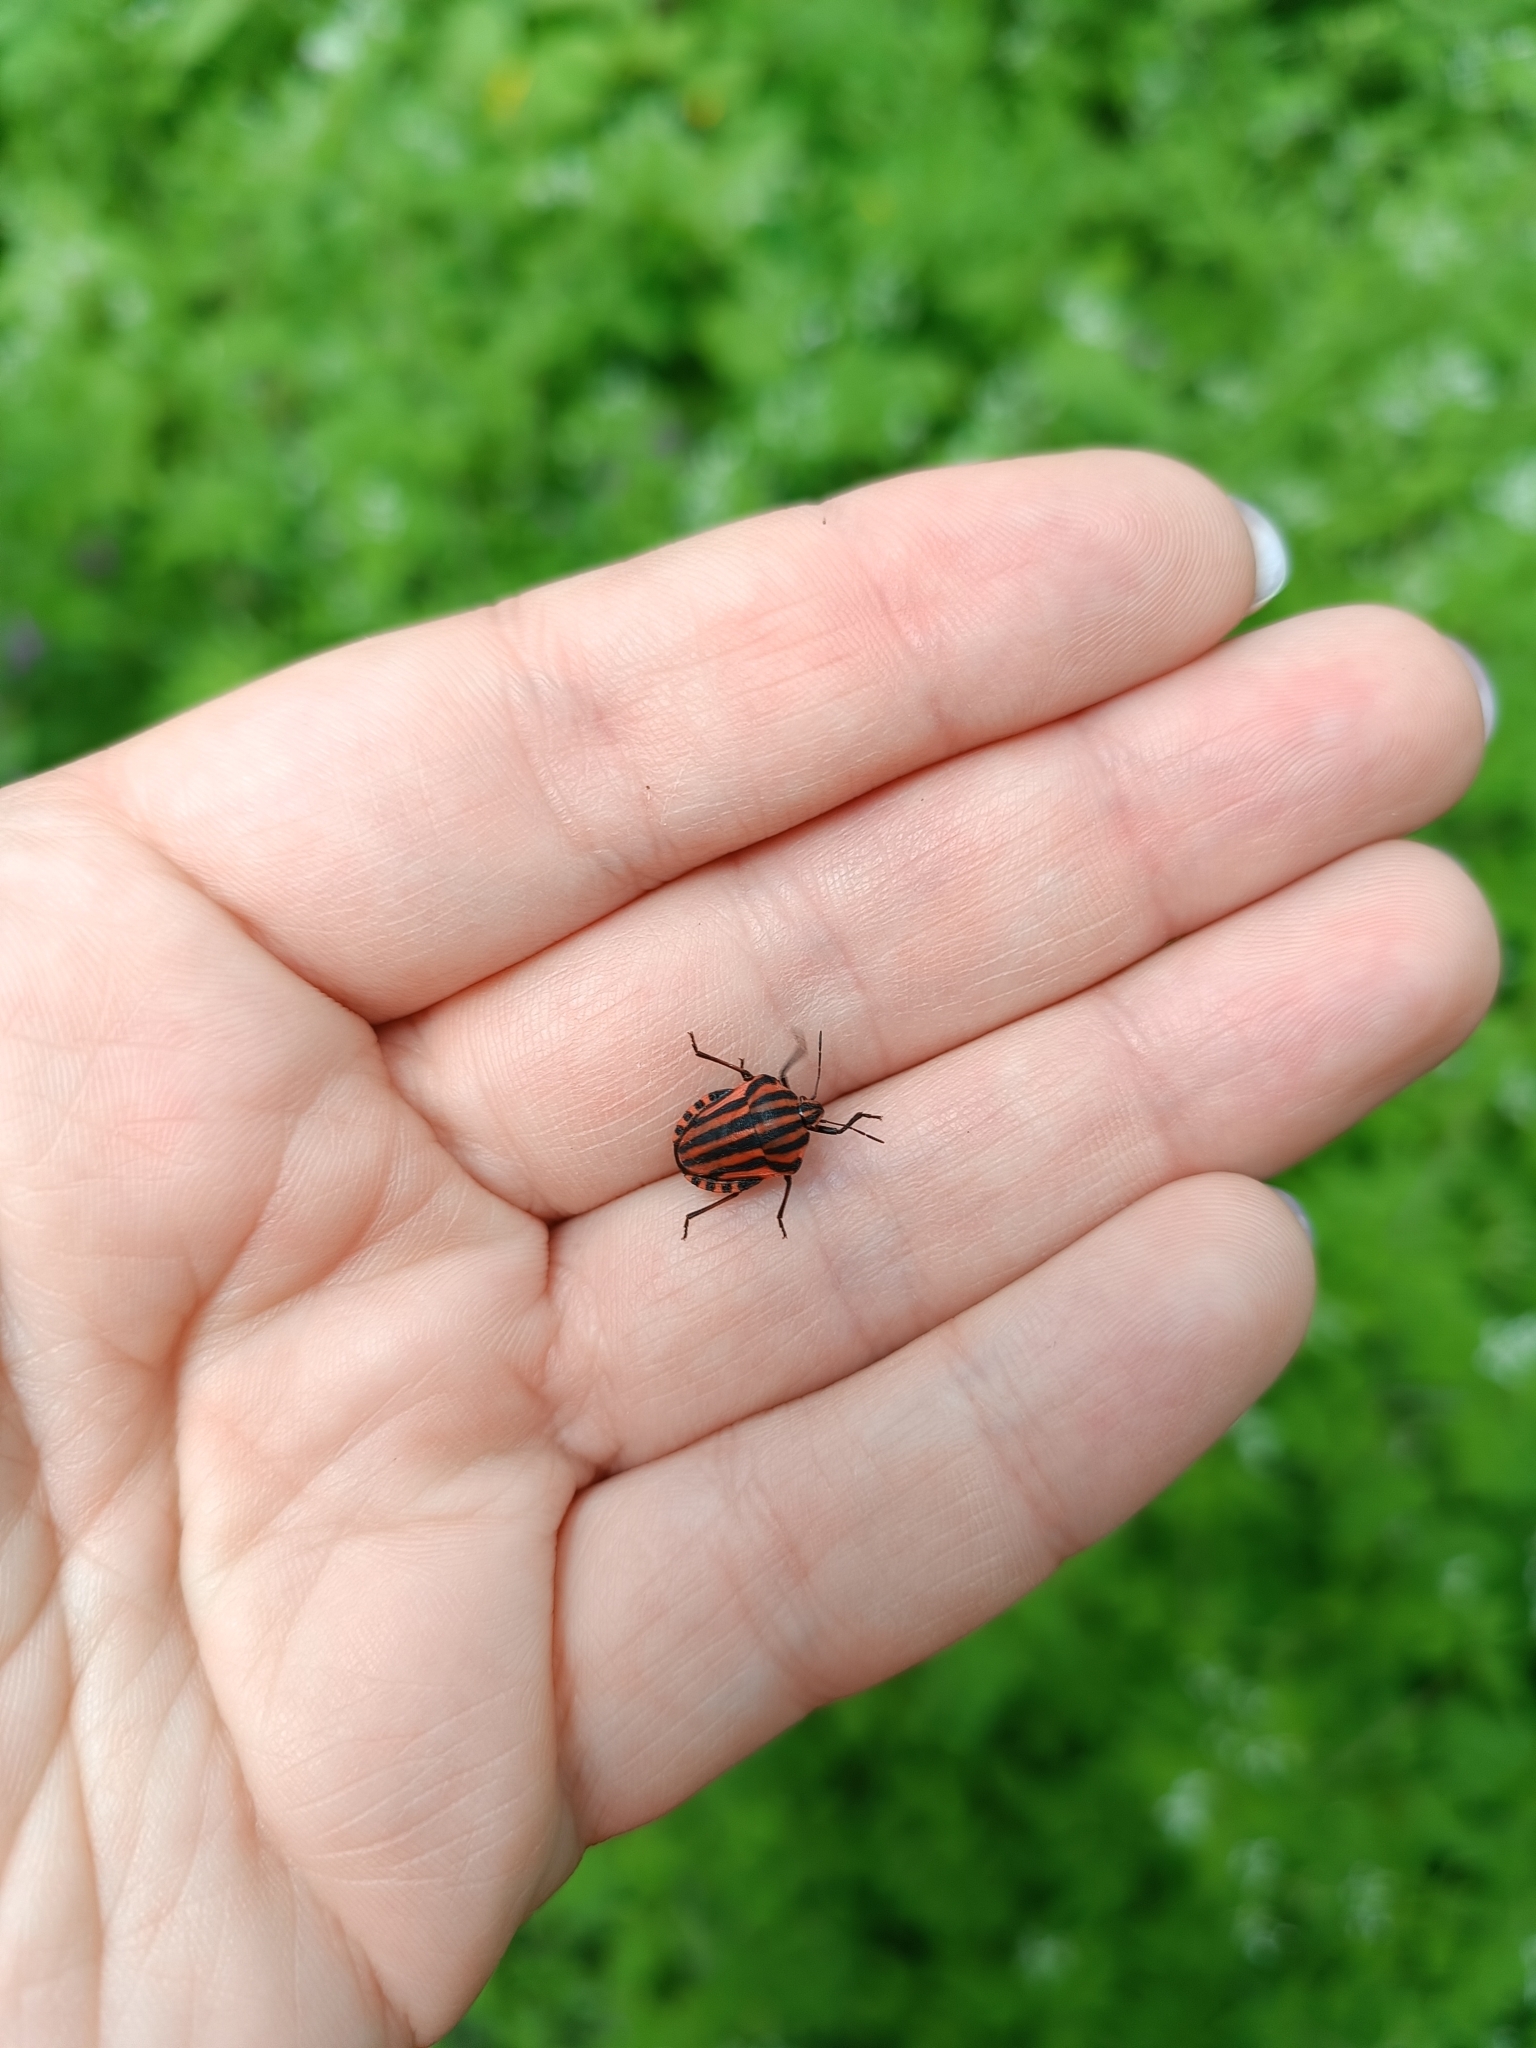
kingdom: Animalia
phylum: Arthropoda
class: Insecta
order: Hemiptera
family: Pentatomidae
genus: Graphosoma
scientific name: Graphosoma italicum
